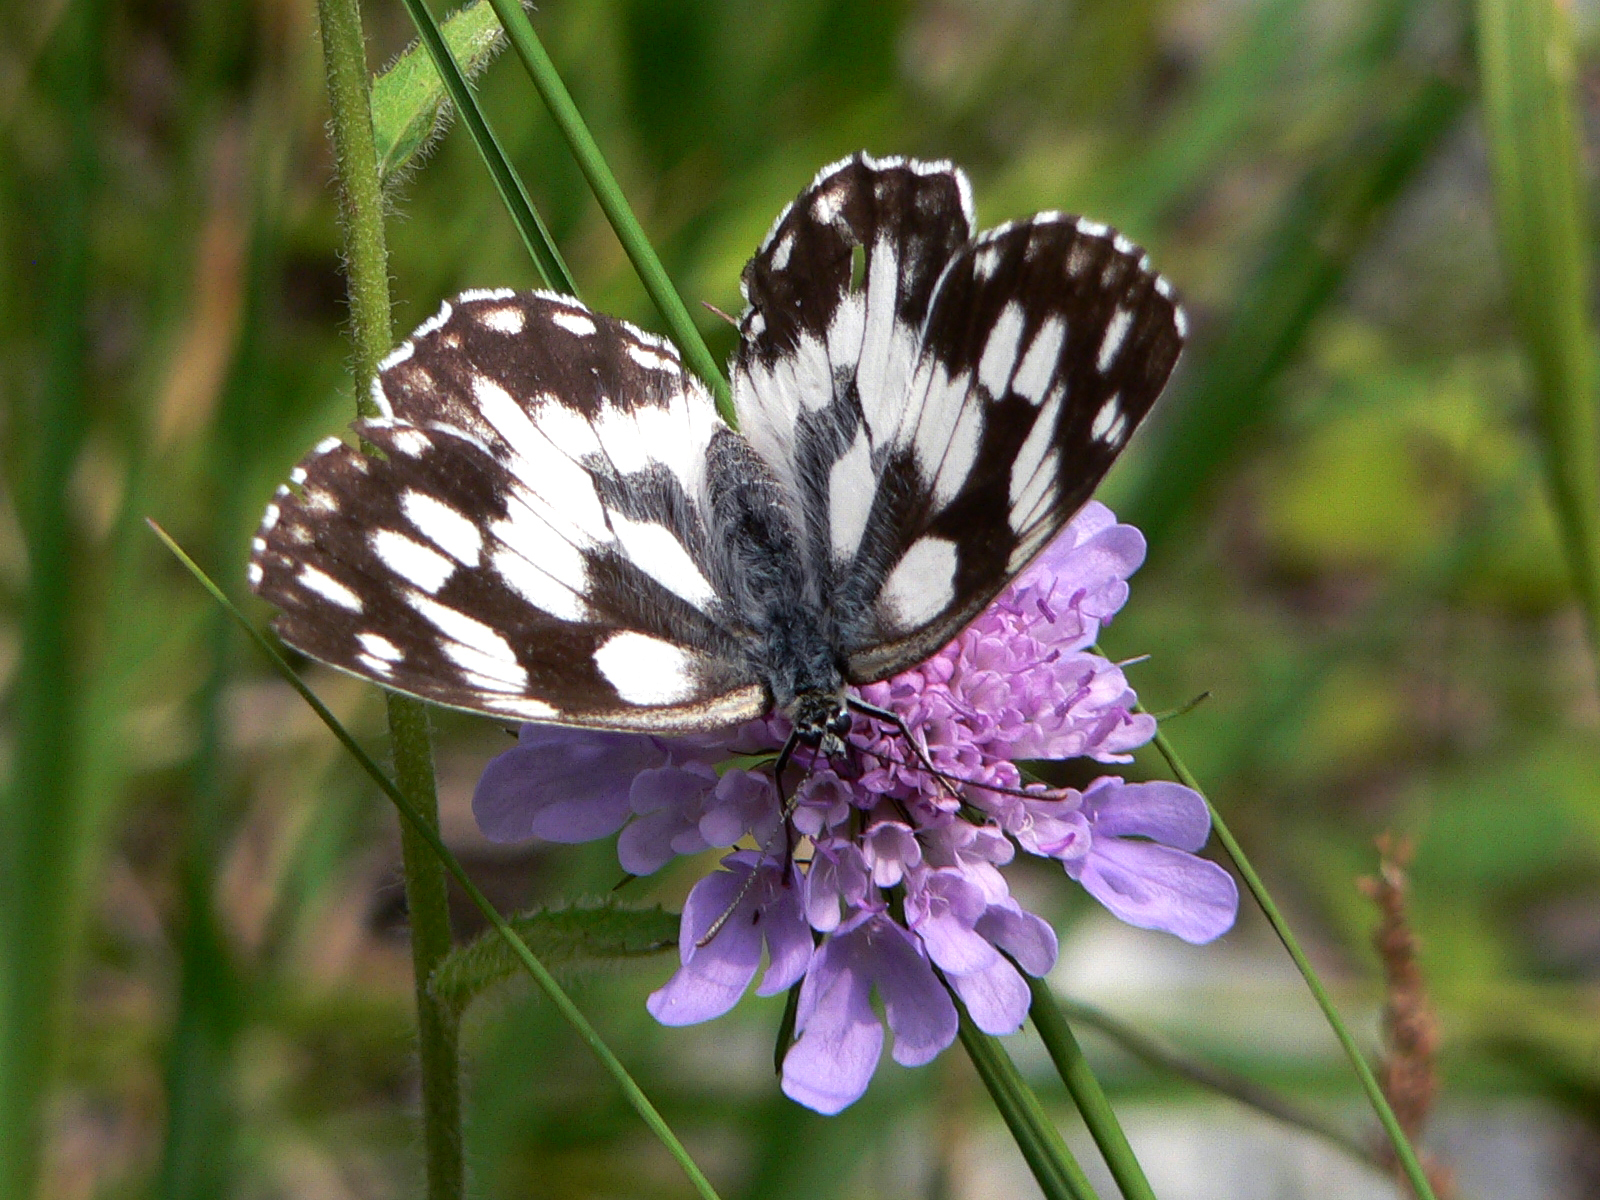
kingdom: Animalia
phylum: Arthropoda
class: Insecta
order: Lepidoptera
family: Nymphalidae
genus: Melanargia
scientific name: Melanargia galathea
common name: Marbled white
